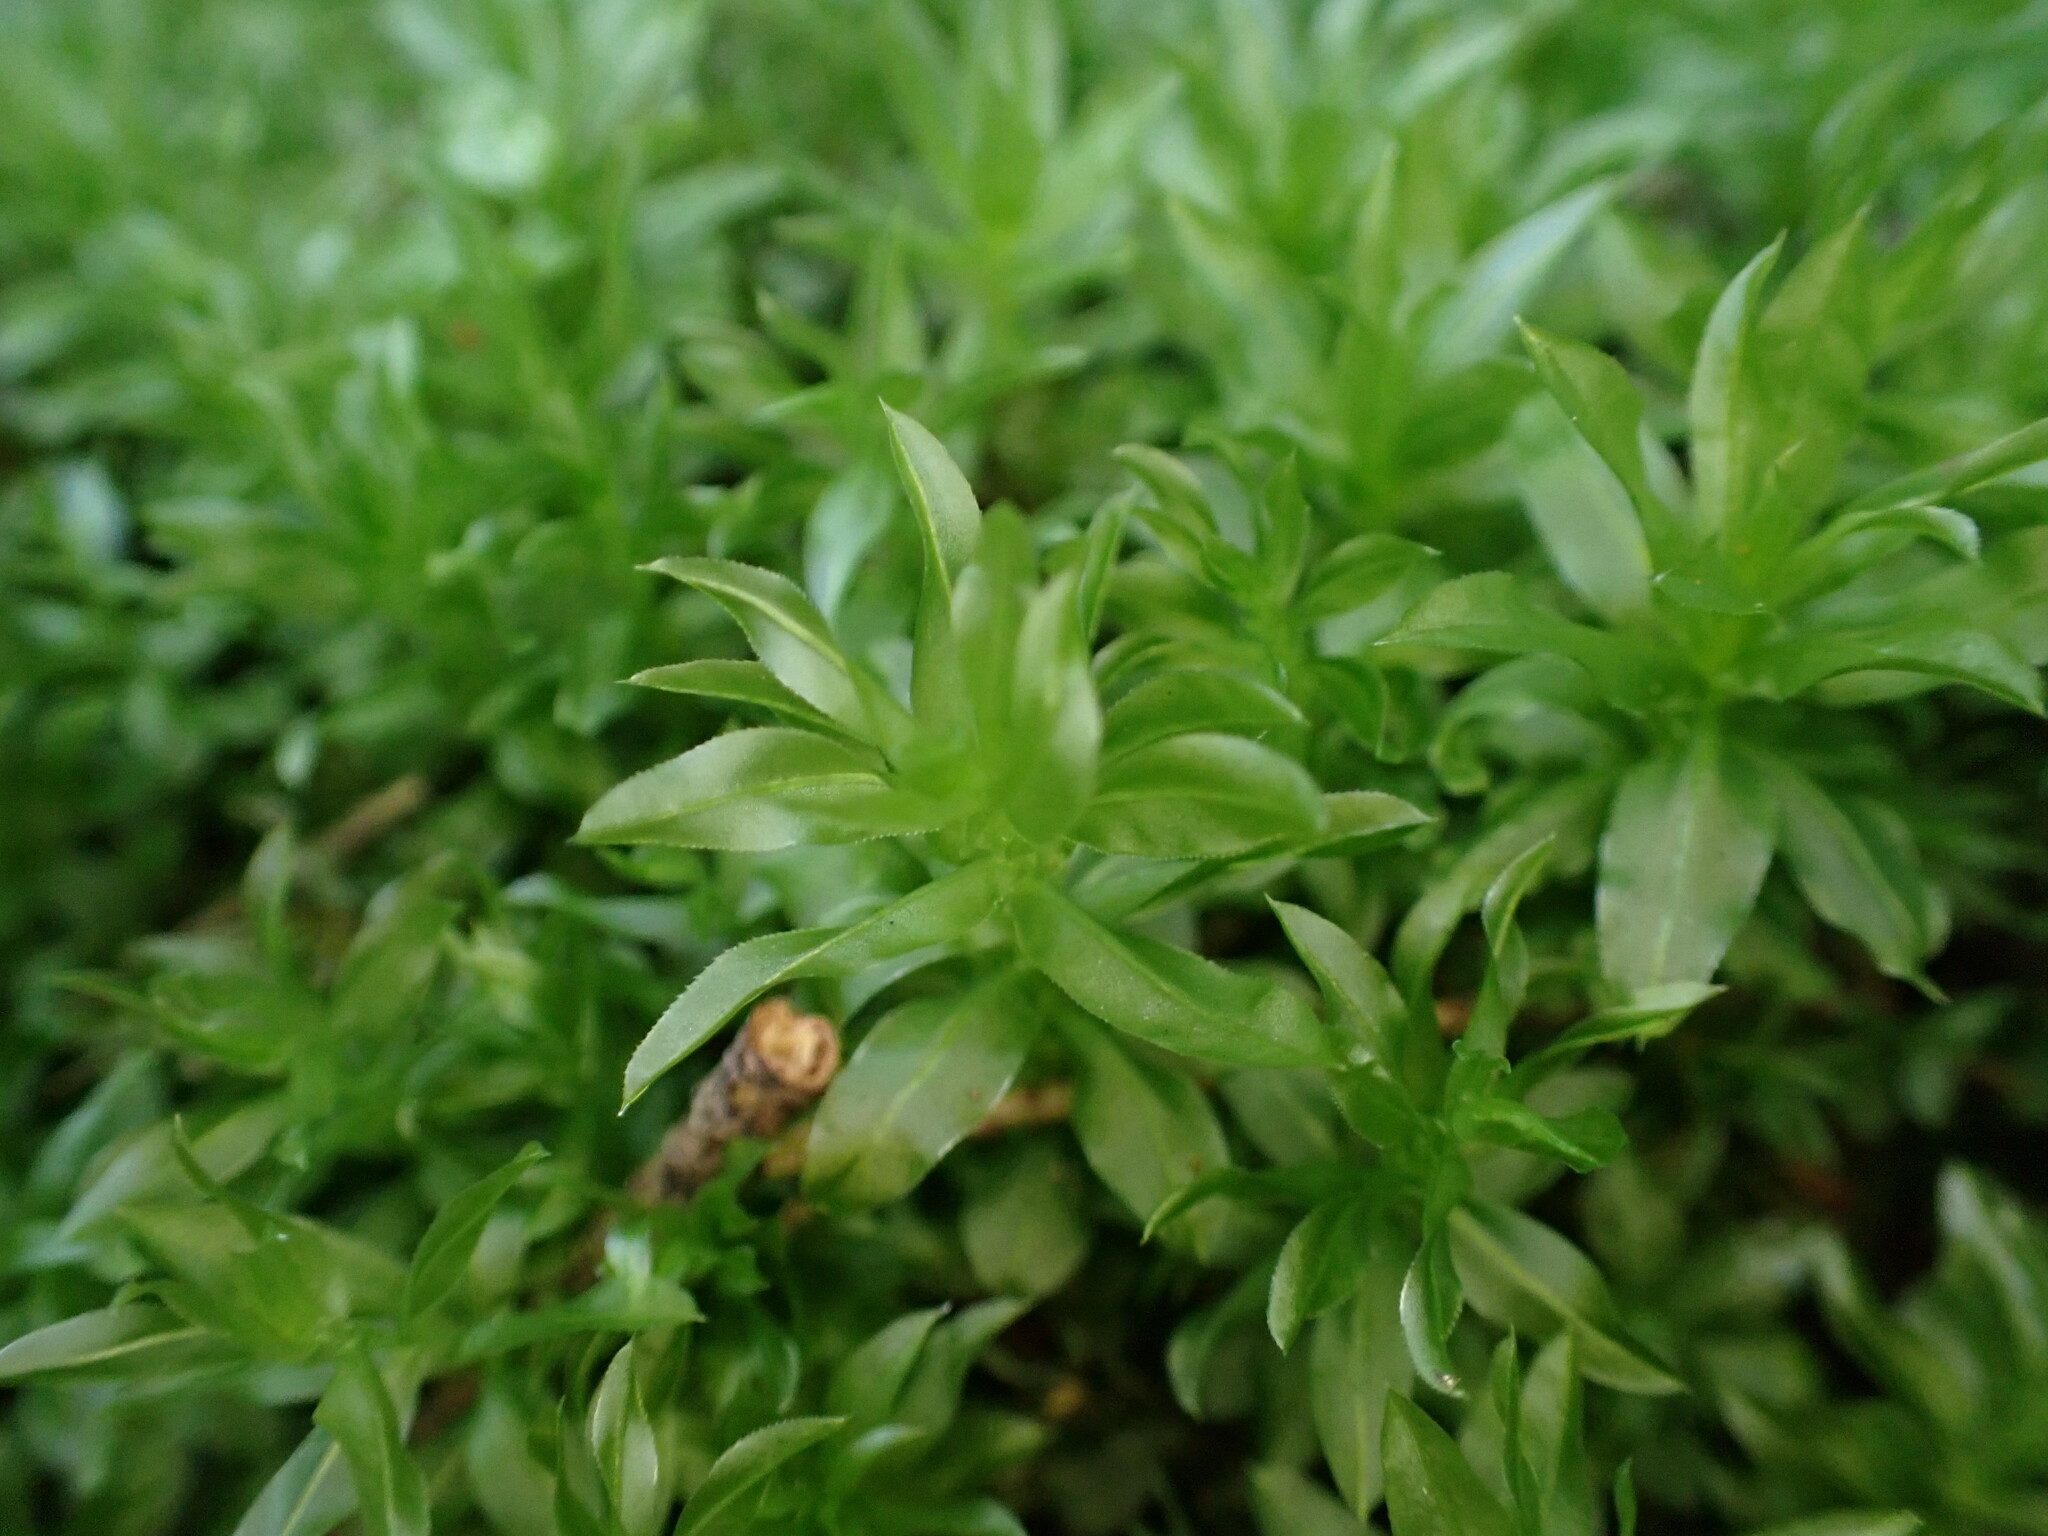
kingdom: Plantae
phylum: Bryophyta
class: Bryopsida
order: Bryales
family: Mniaceae
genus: Plagiomnium
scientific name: Plagiomnium insigne
